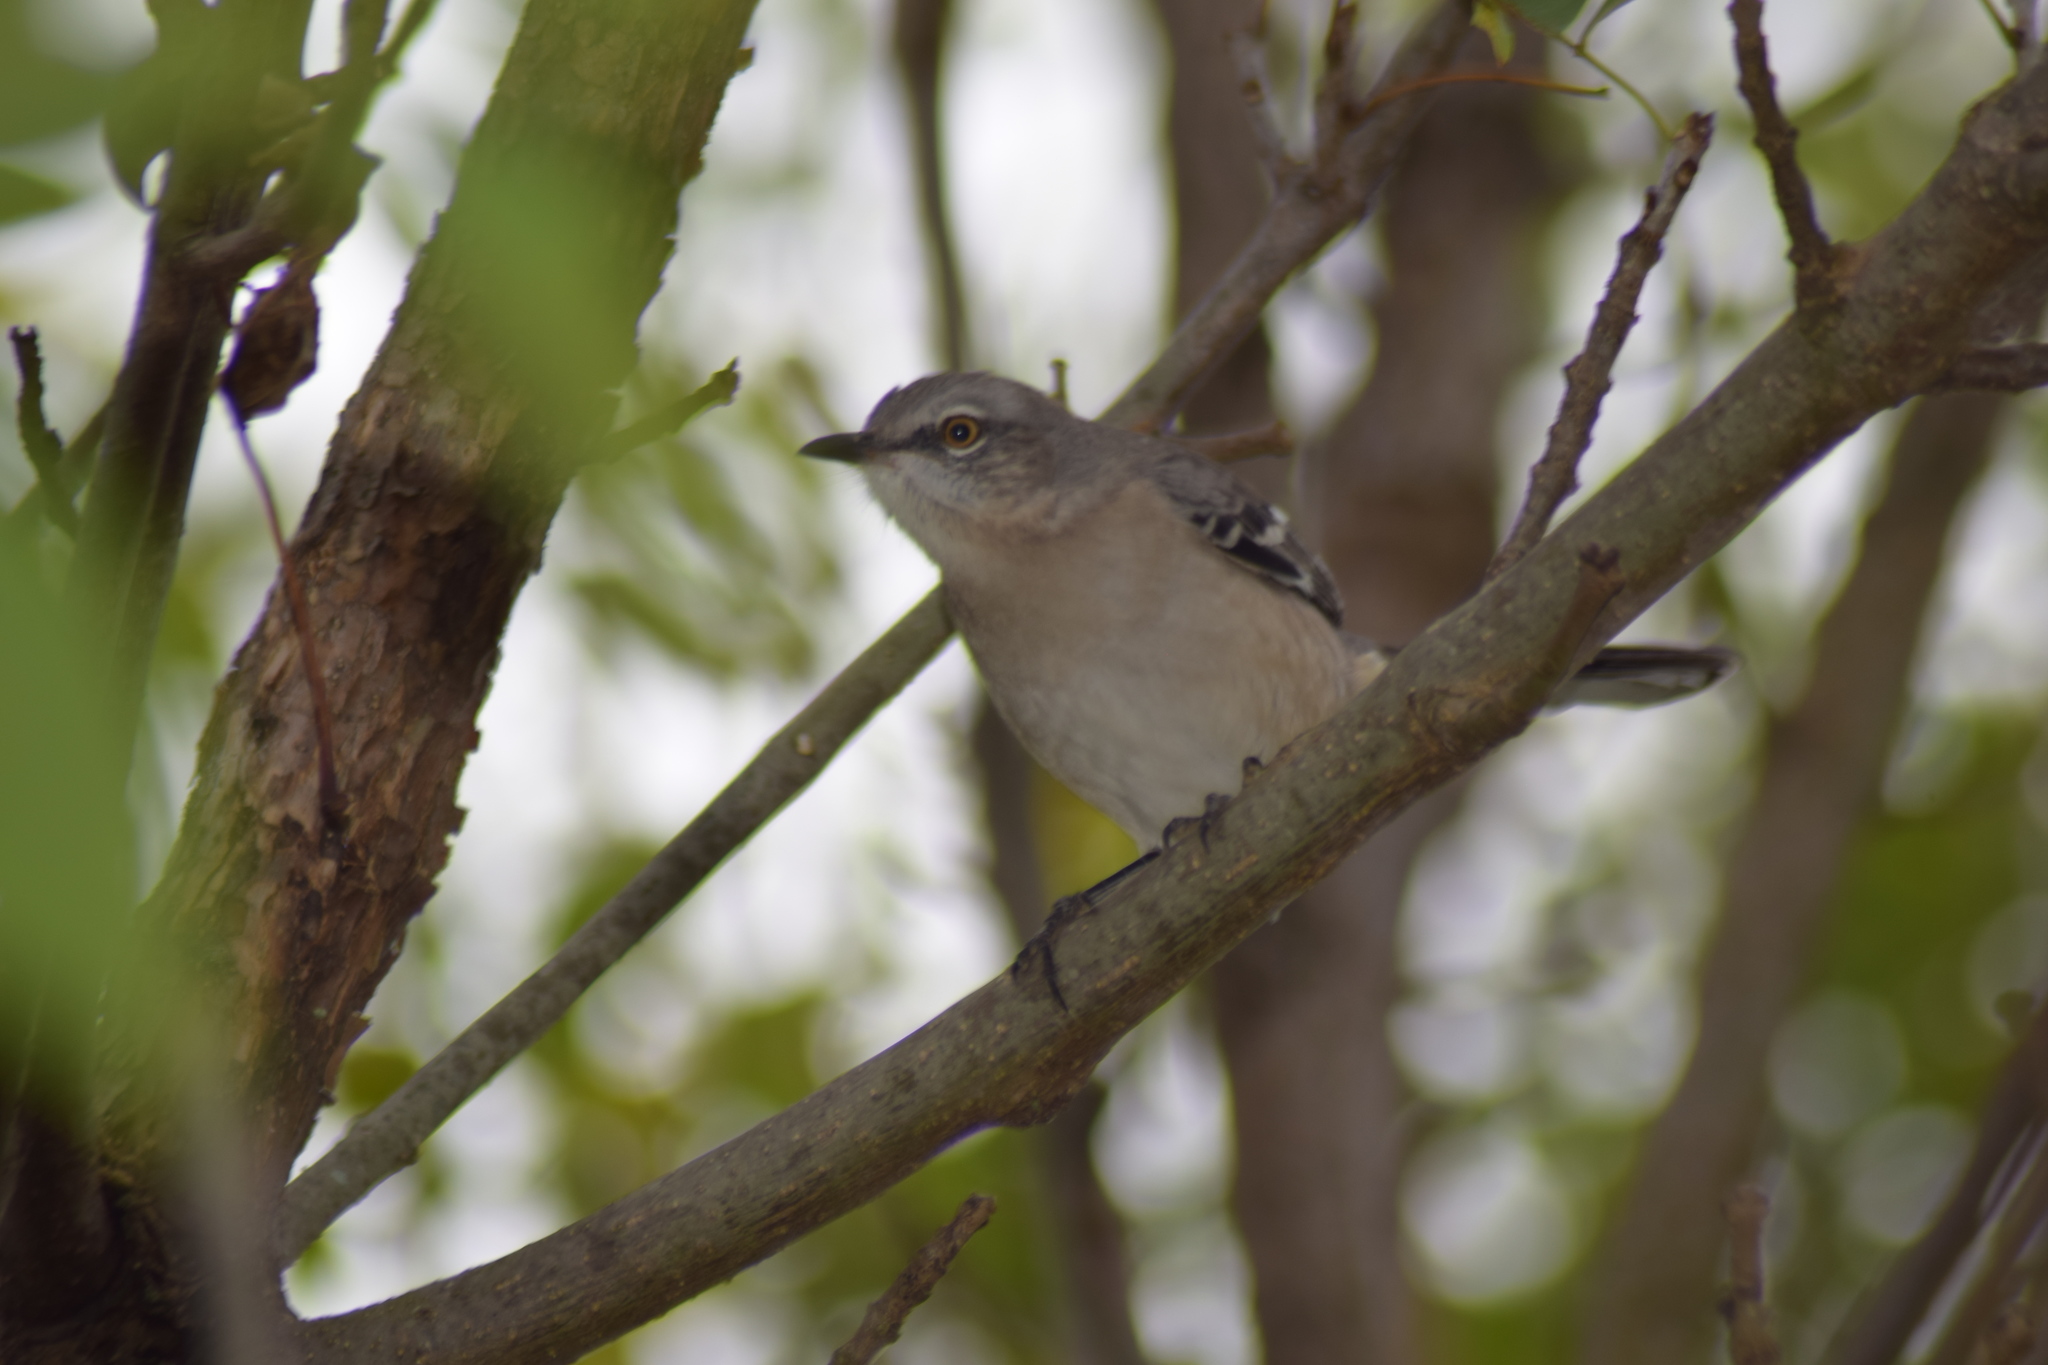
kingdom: Animalia
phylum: Chordata
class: Aves
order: Passeriformes
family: Mimidae
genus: Mimus
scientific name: Mimus polyglottos
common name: Northern mockingbird
